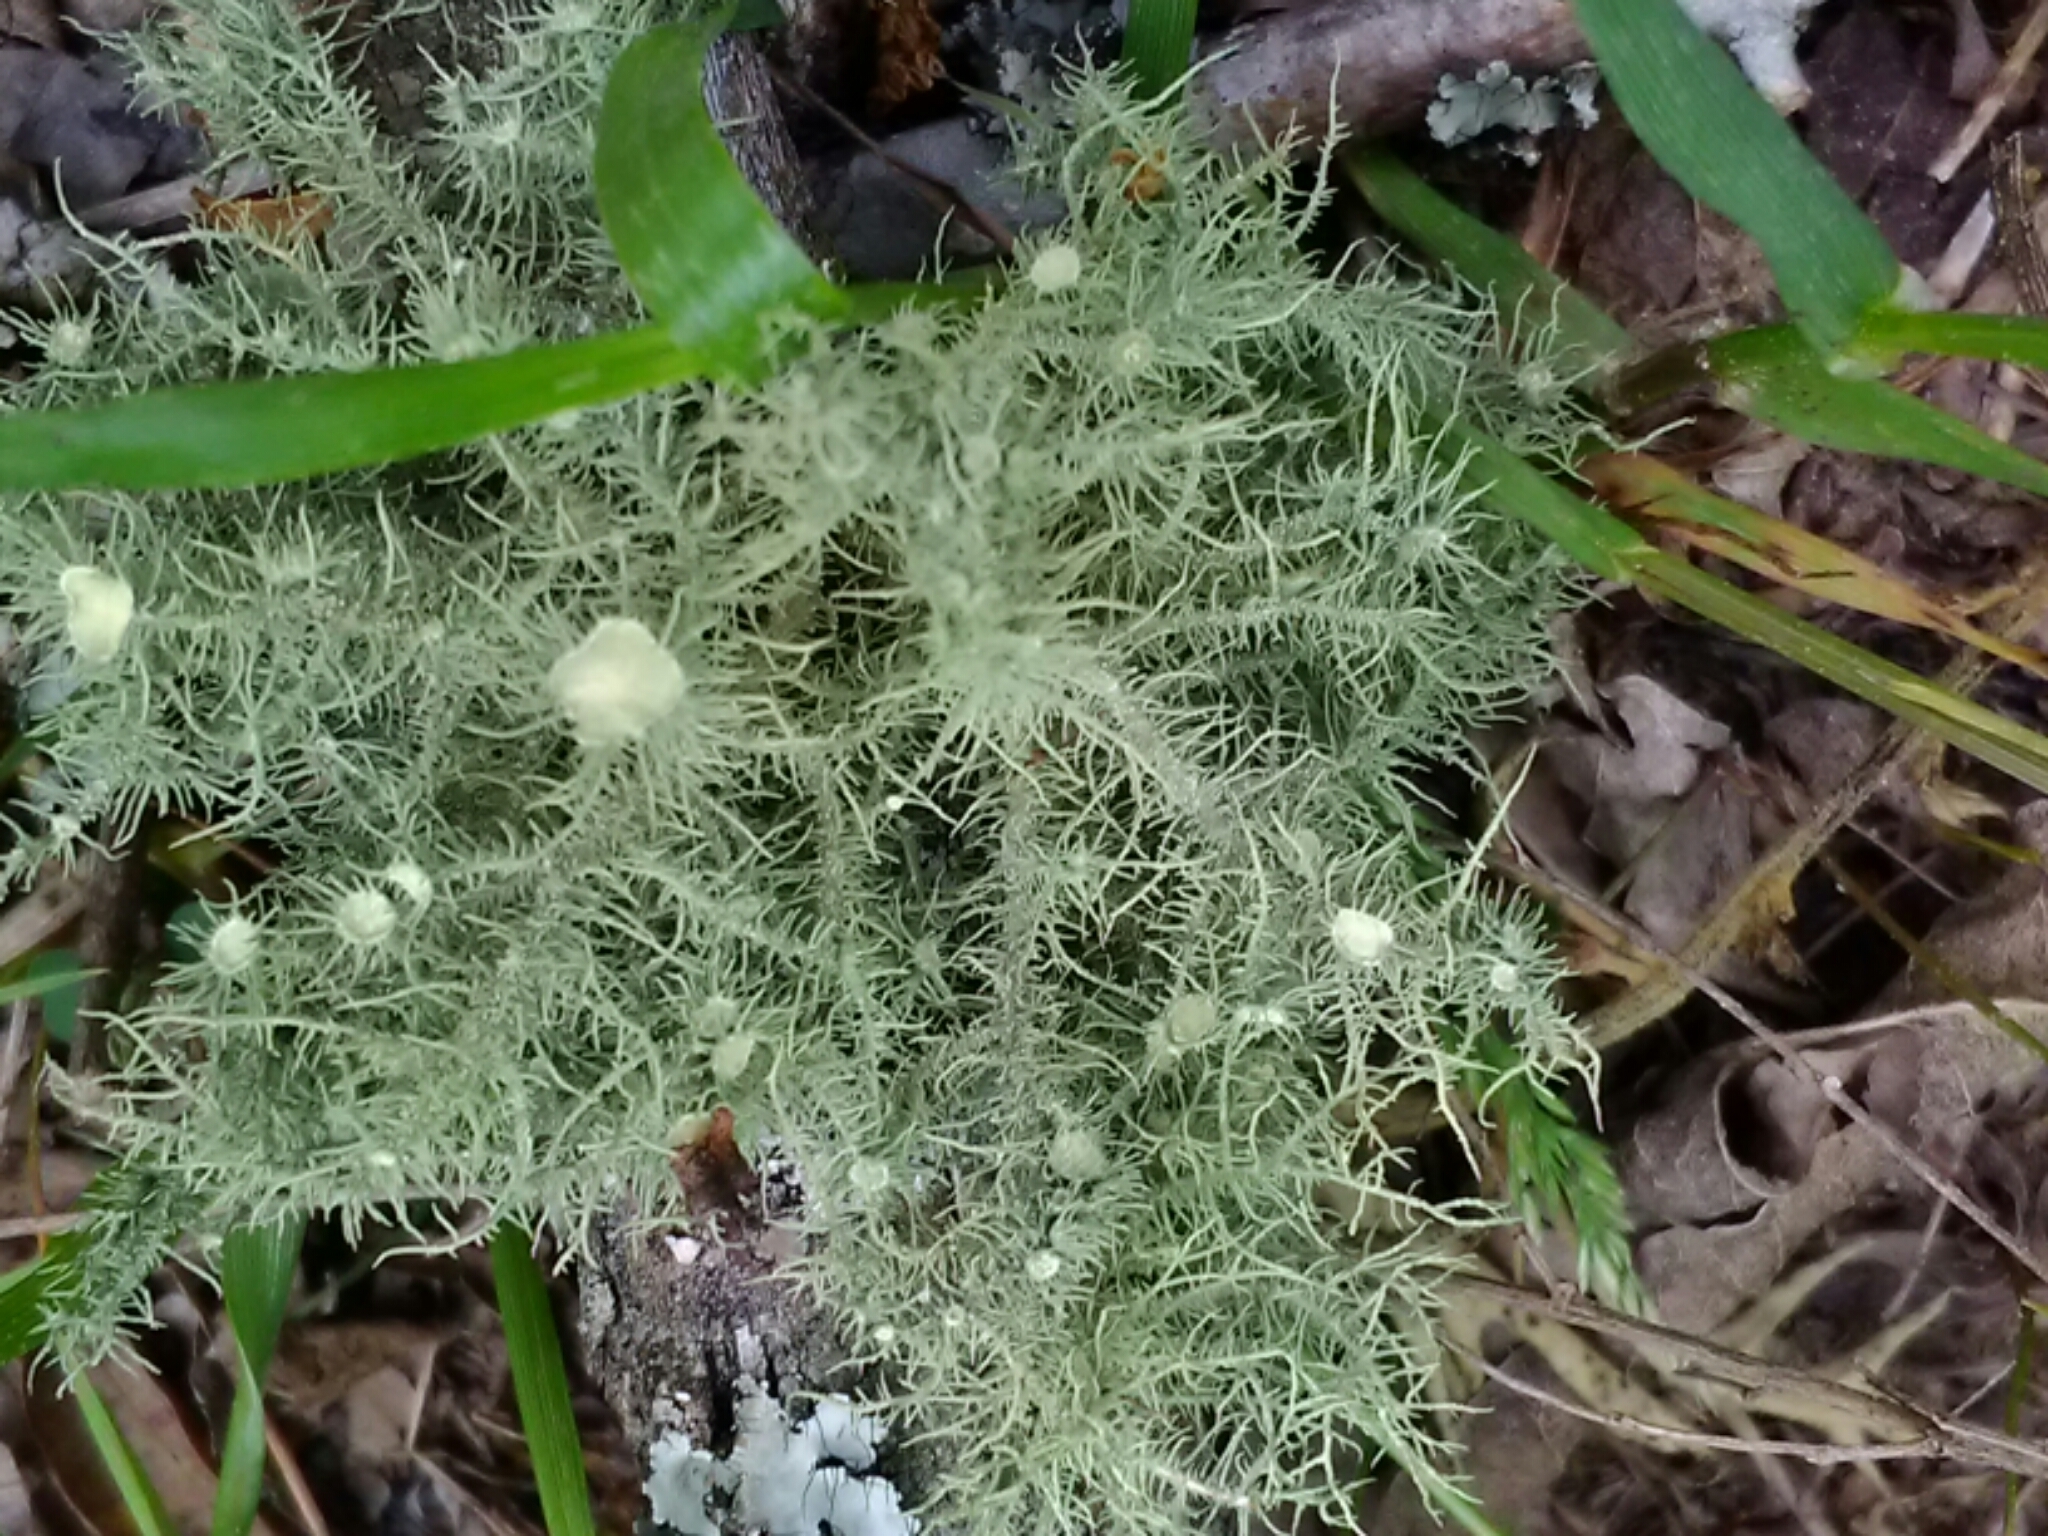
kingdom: Fungi
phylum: Ascomycota
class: Lecanoromycetes
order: Lecanorales
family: Parmeliaceae
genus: Usnea
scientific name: Usnea strigosa
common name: Bushy beard lichen
